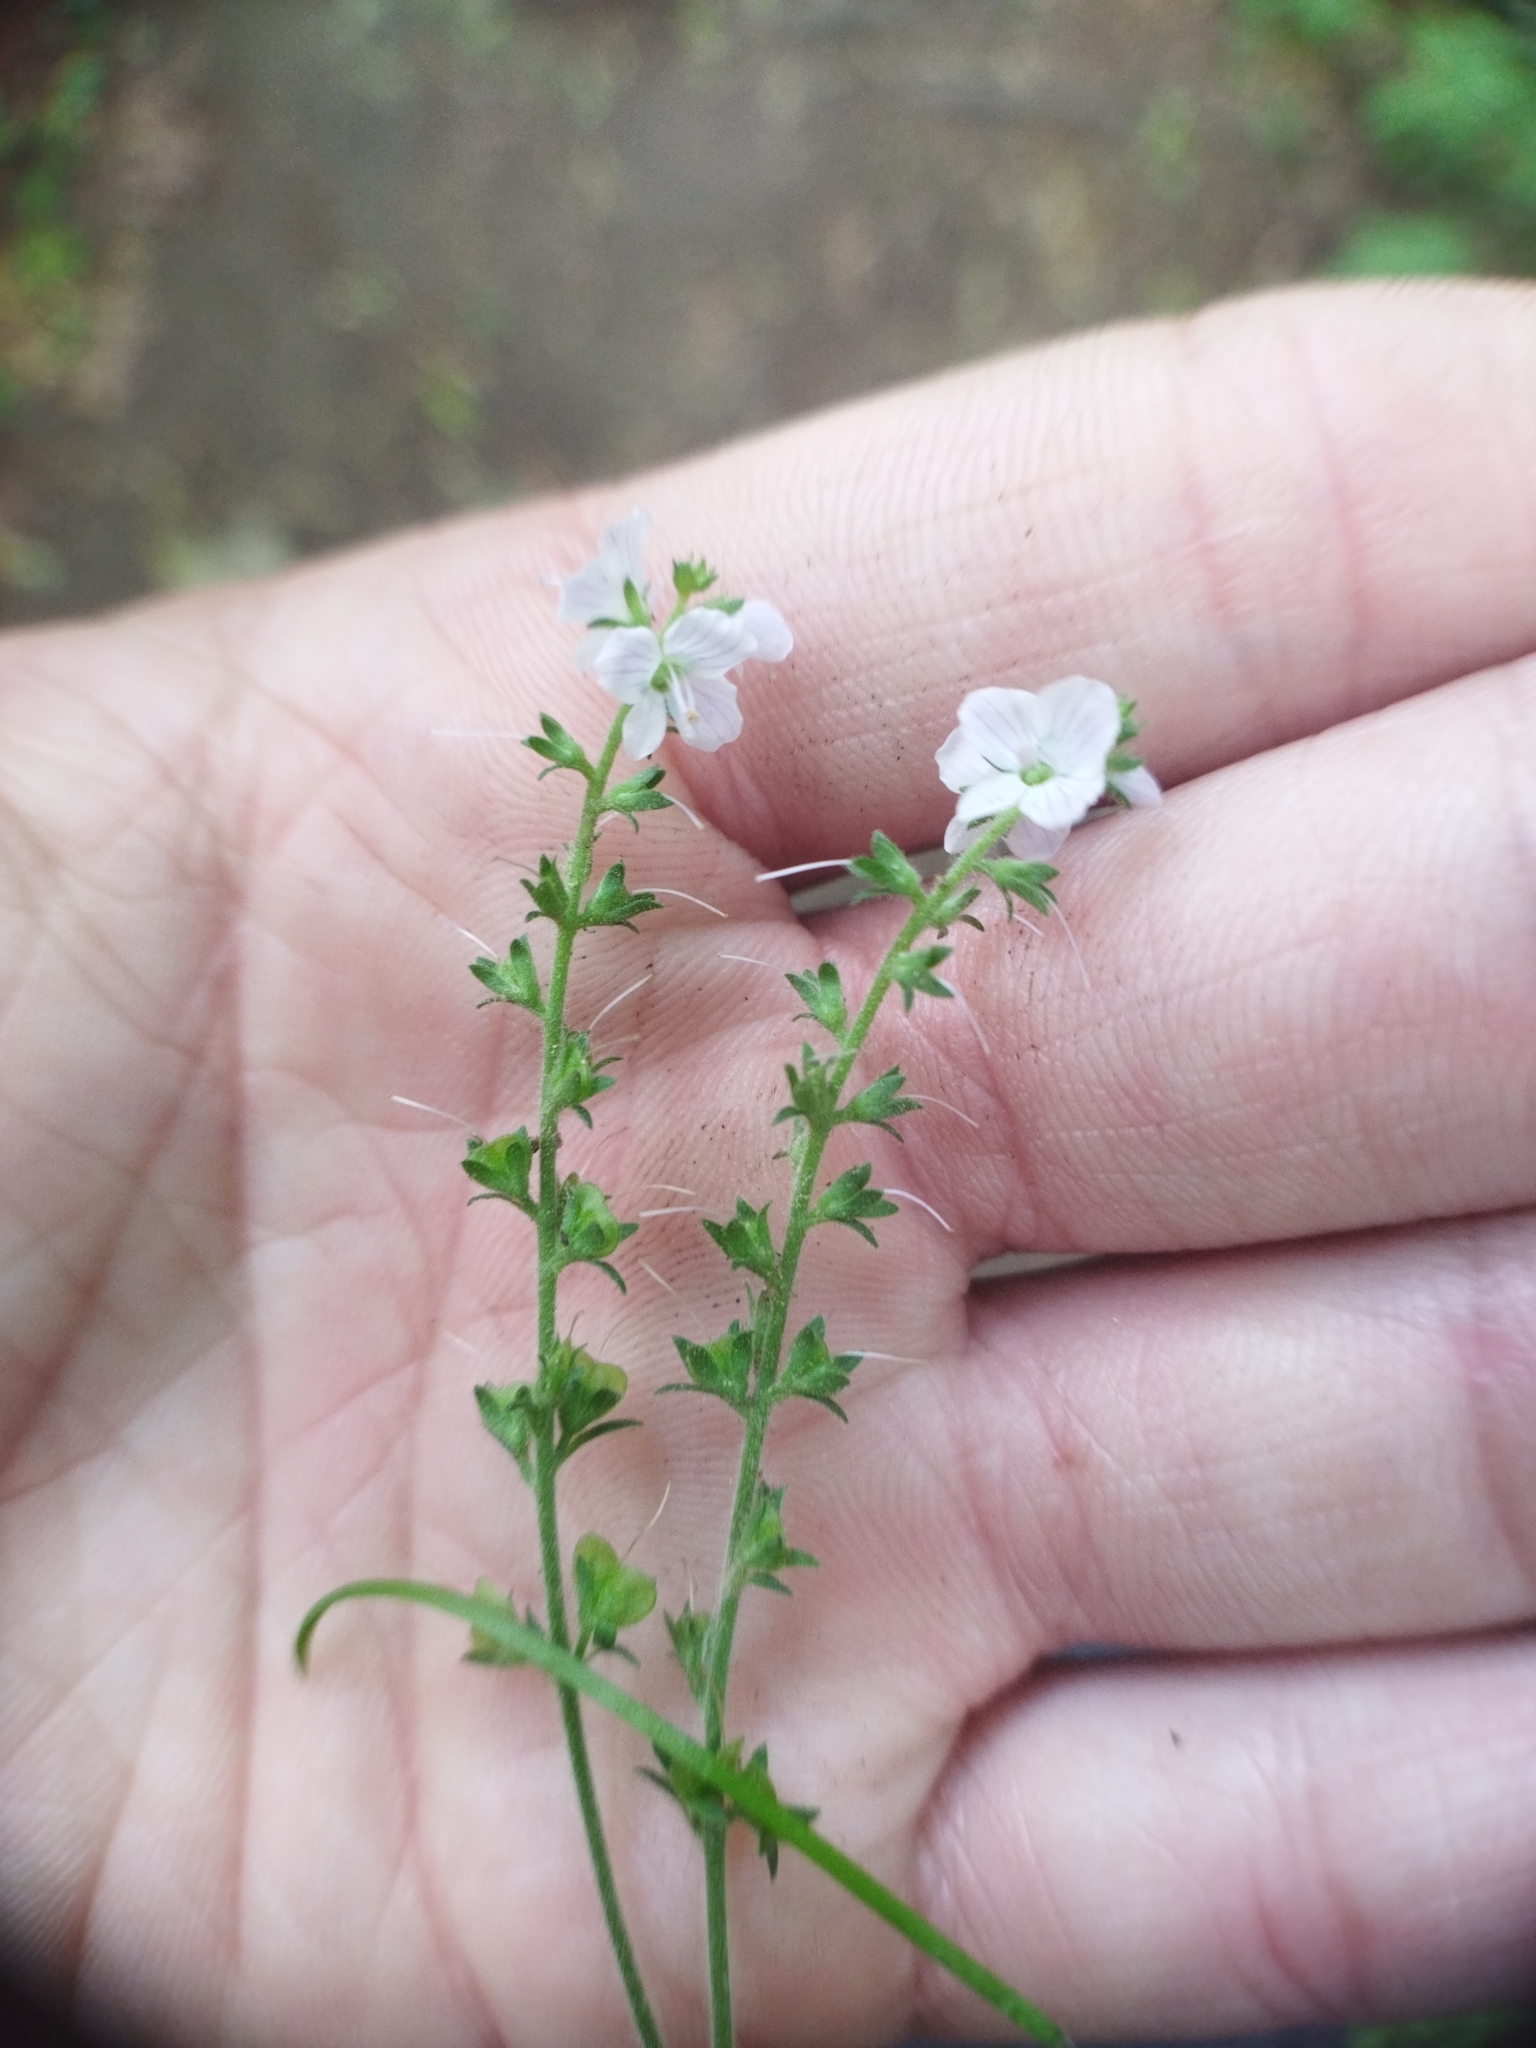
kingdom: Plantae
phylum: Tracheophyta
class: Magnoliopsida
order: Lamiales
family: Plantaginaceae
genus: Veronica
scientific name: Veronica officinalis
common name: Common speedwell
